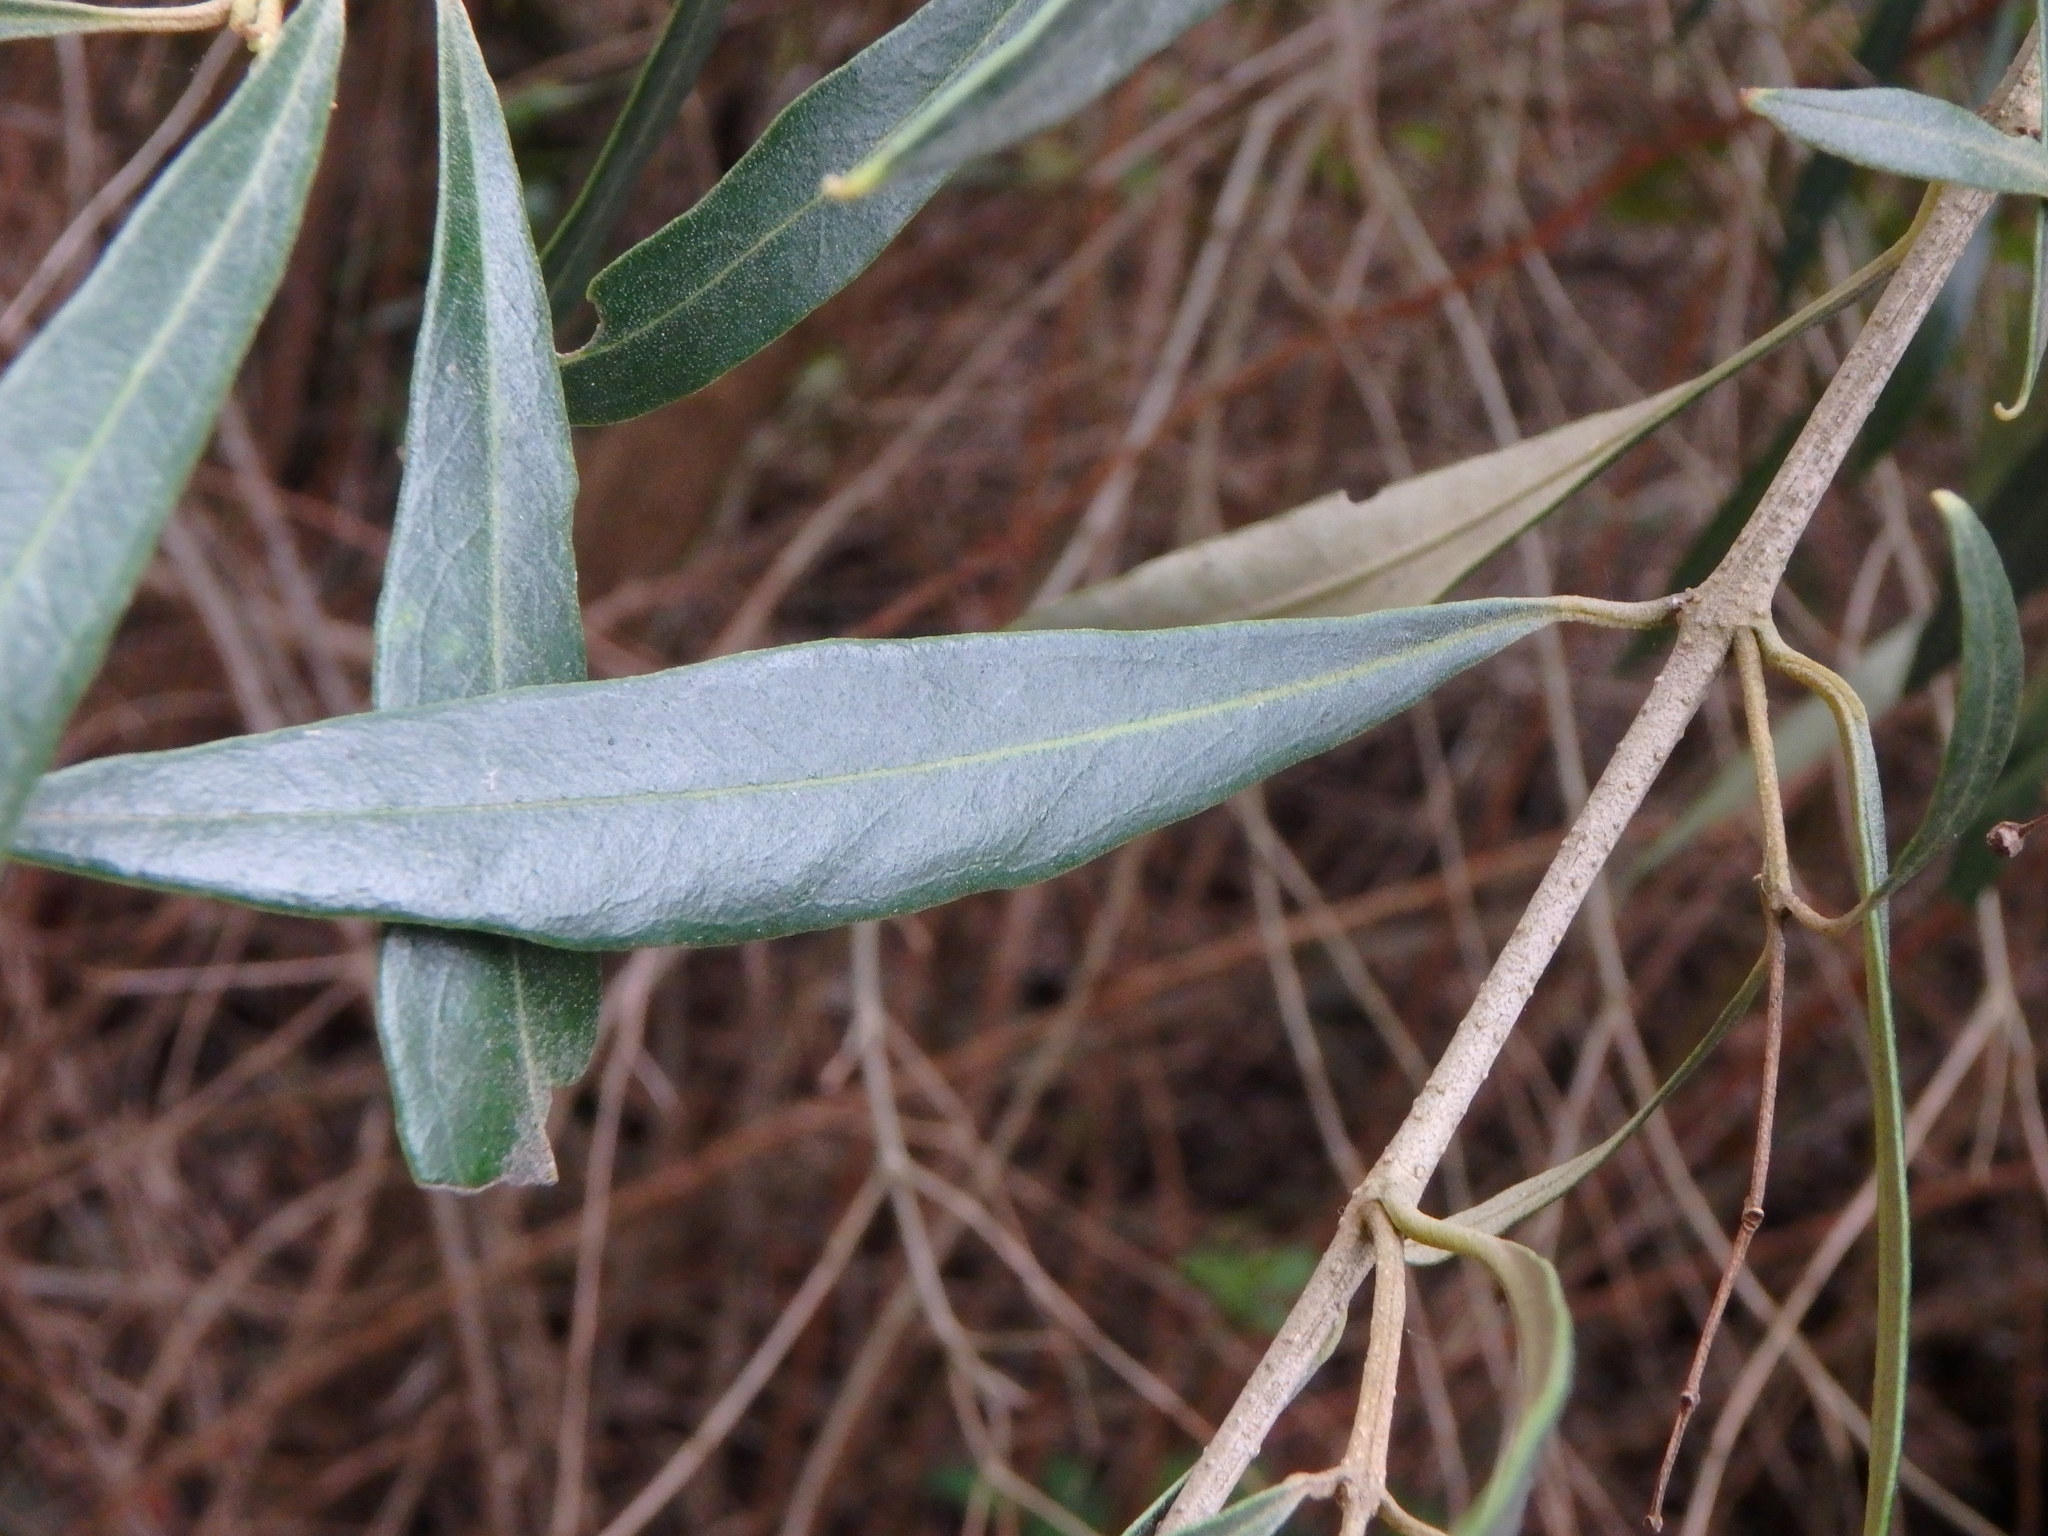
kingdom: Plantae
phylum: Tracheophyta
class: Magnoliopsida
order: Lamiales
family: Oleaceae
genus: Olea
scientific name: Olea europaea
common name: Olive
